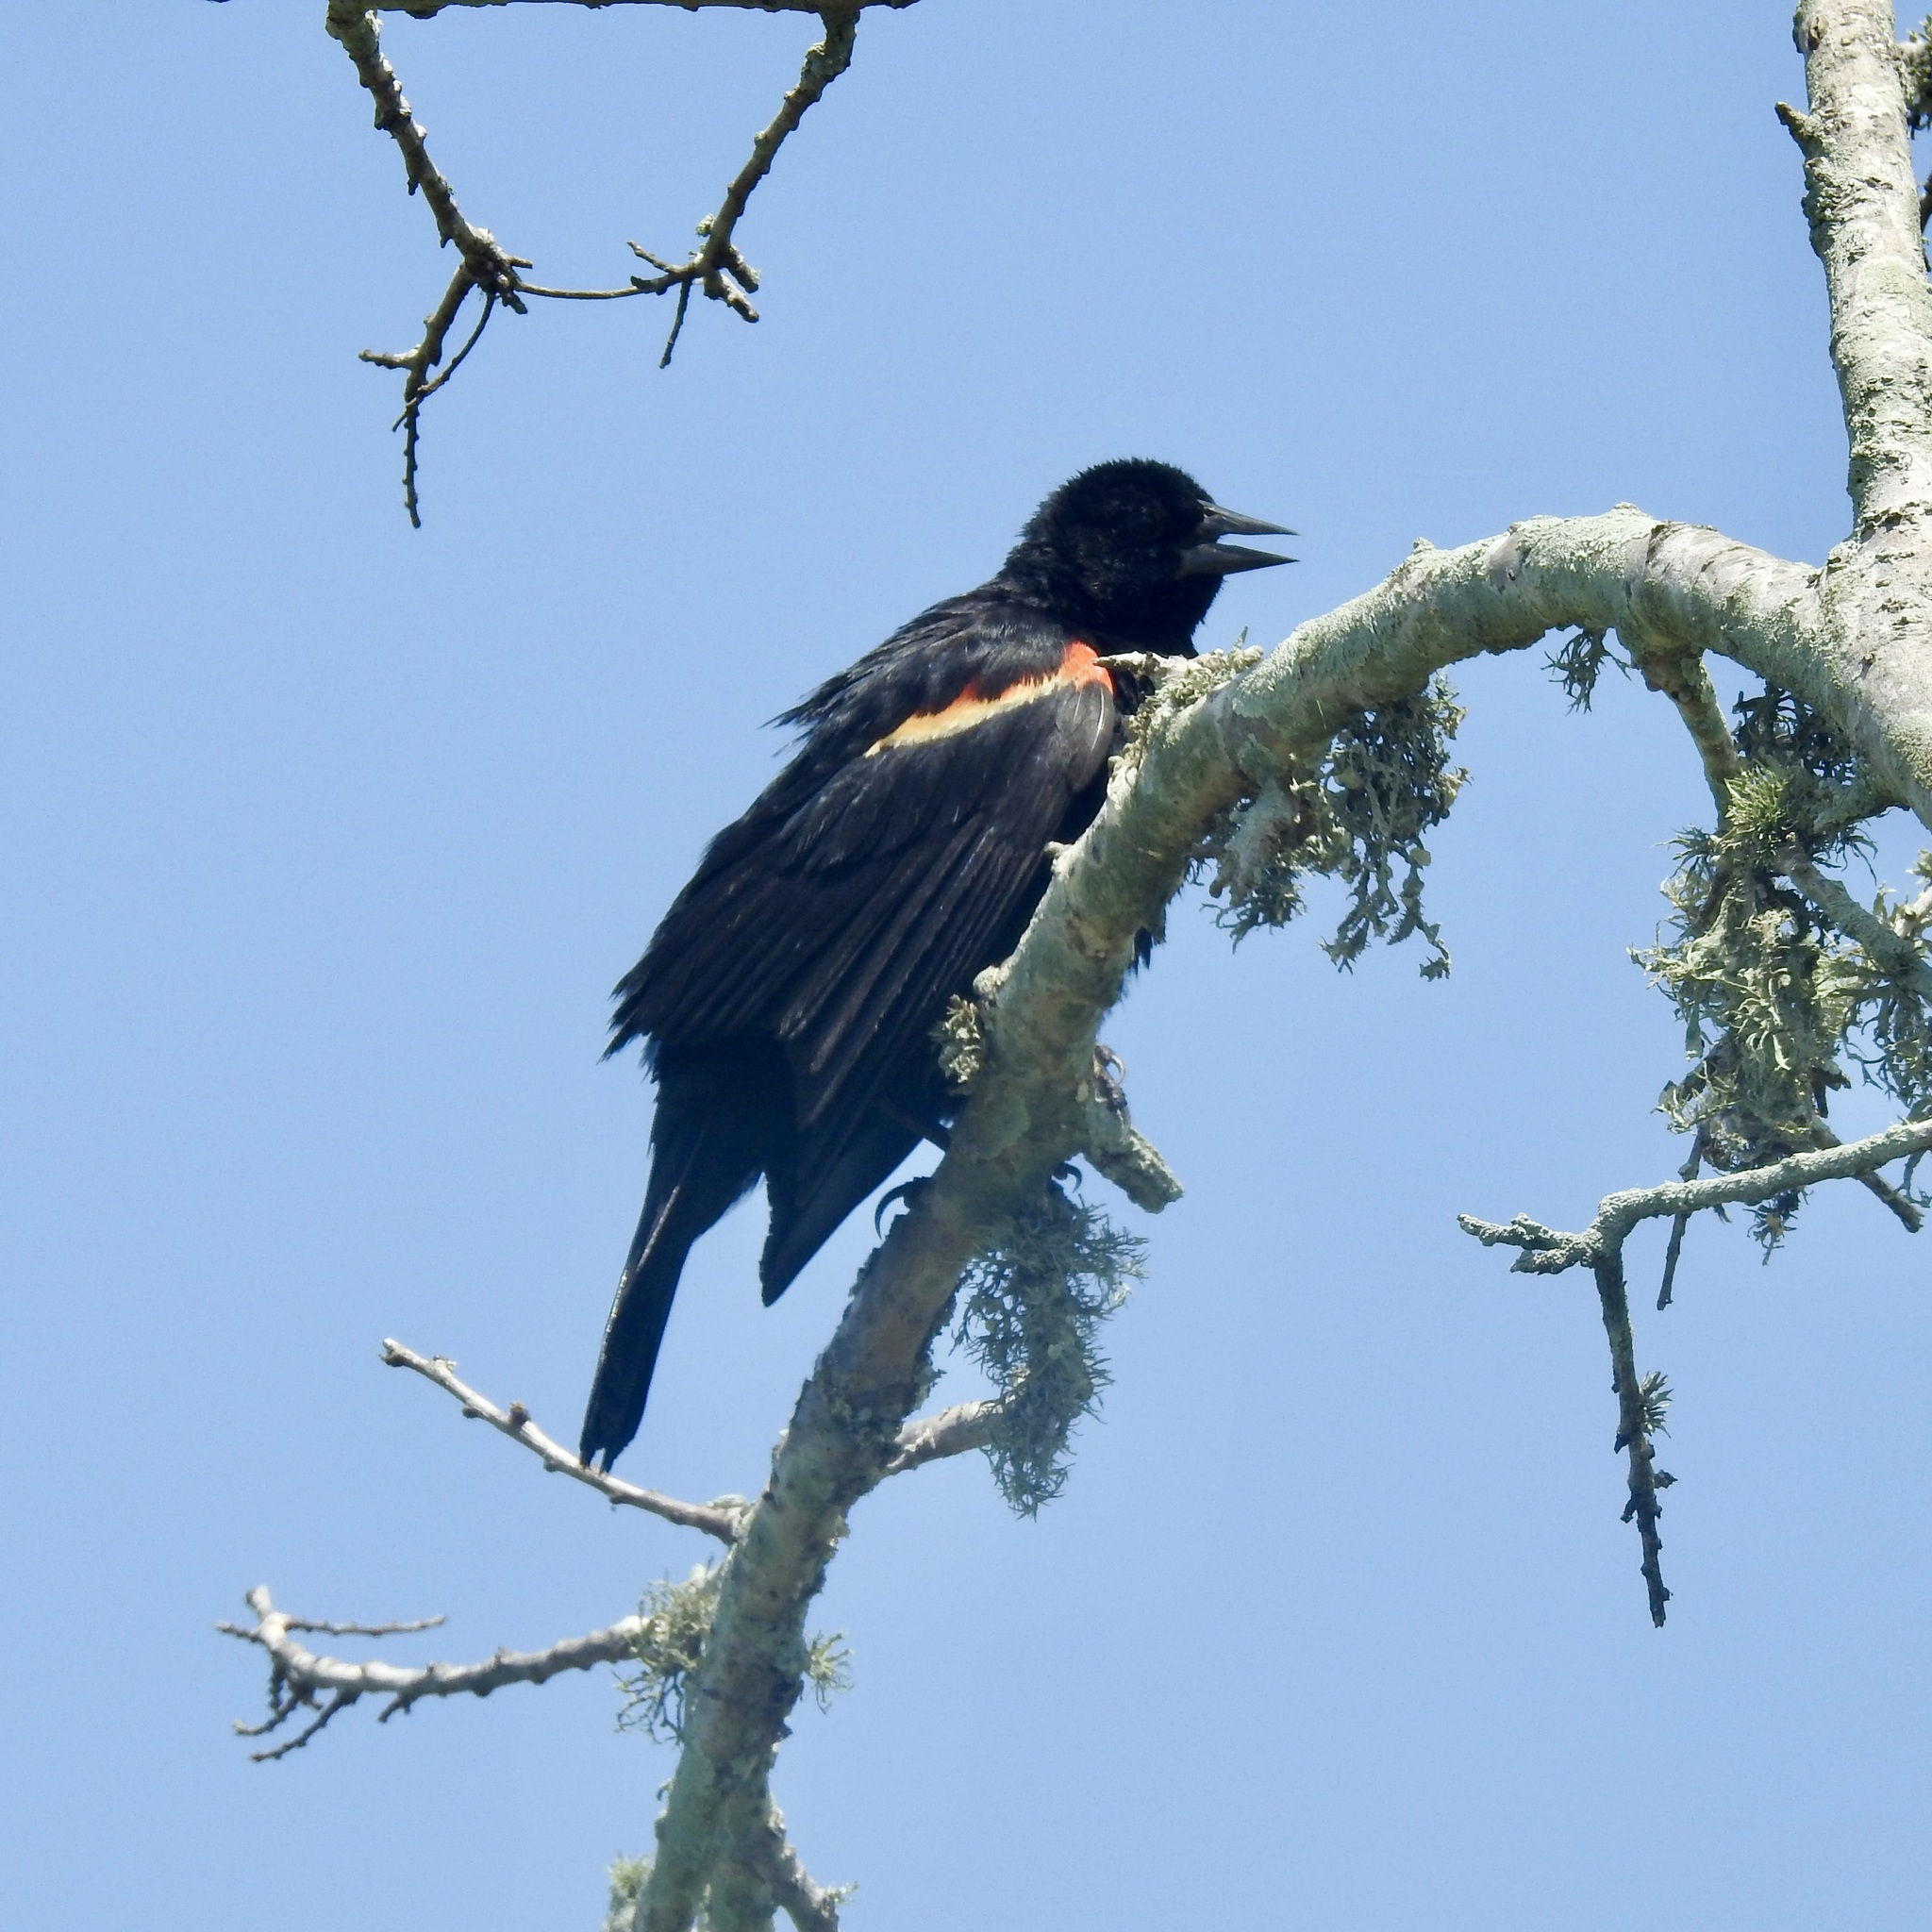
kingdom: Animalia
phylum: Chordata
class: Aves
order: Passeriformes
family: Icteridae
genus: Agelaius
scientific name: Agelaius phoeniceus
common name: Red-winged blackbird
